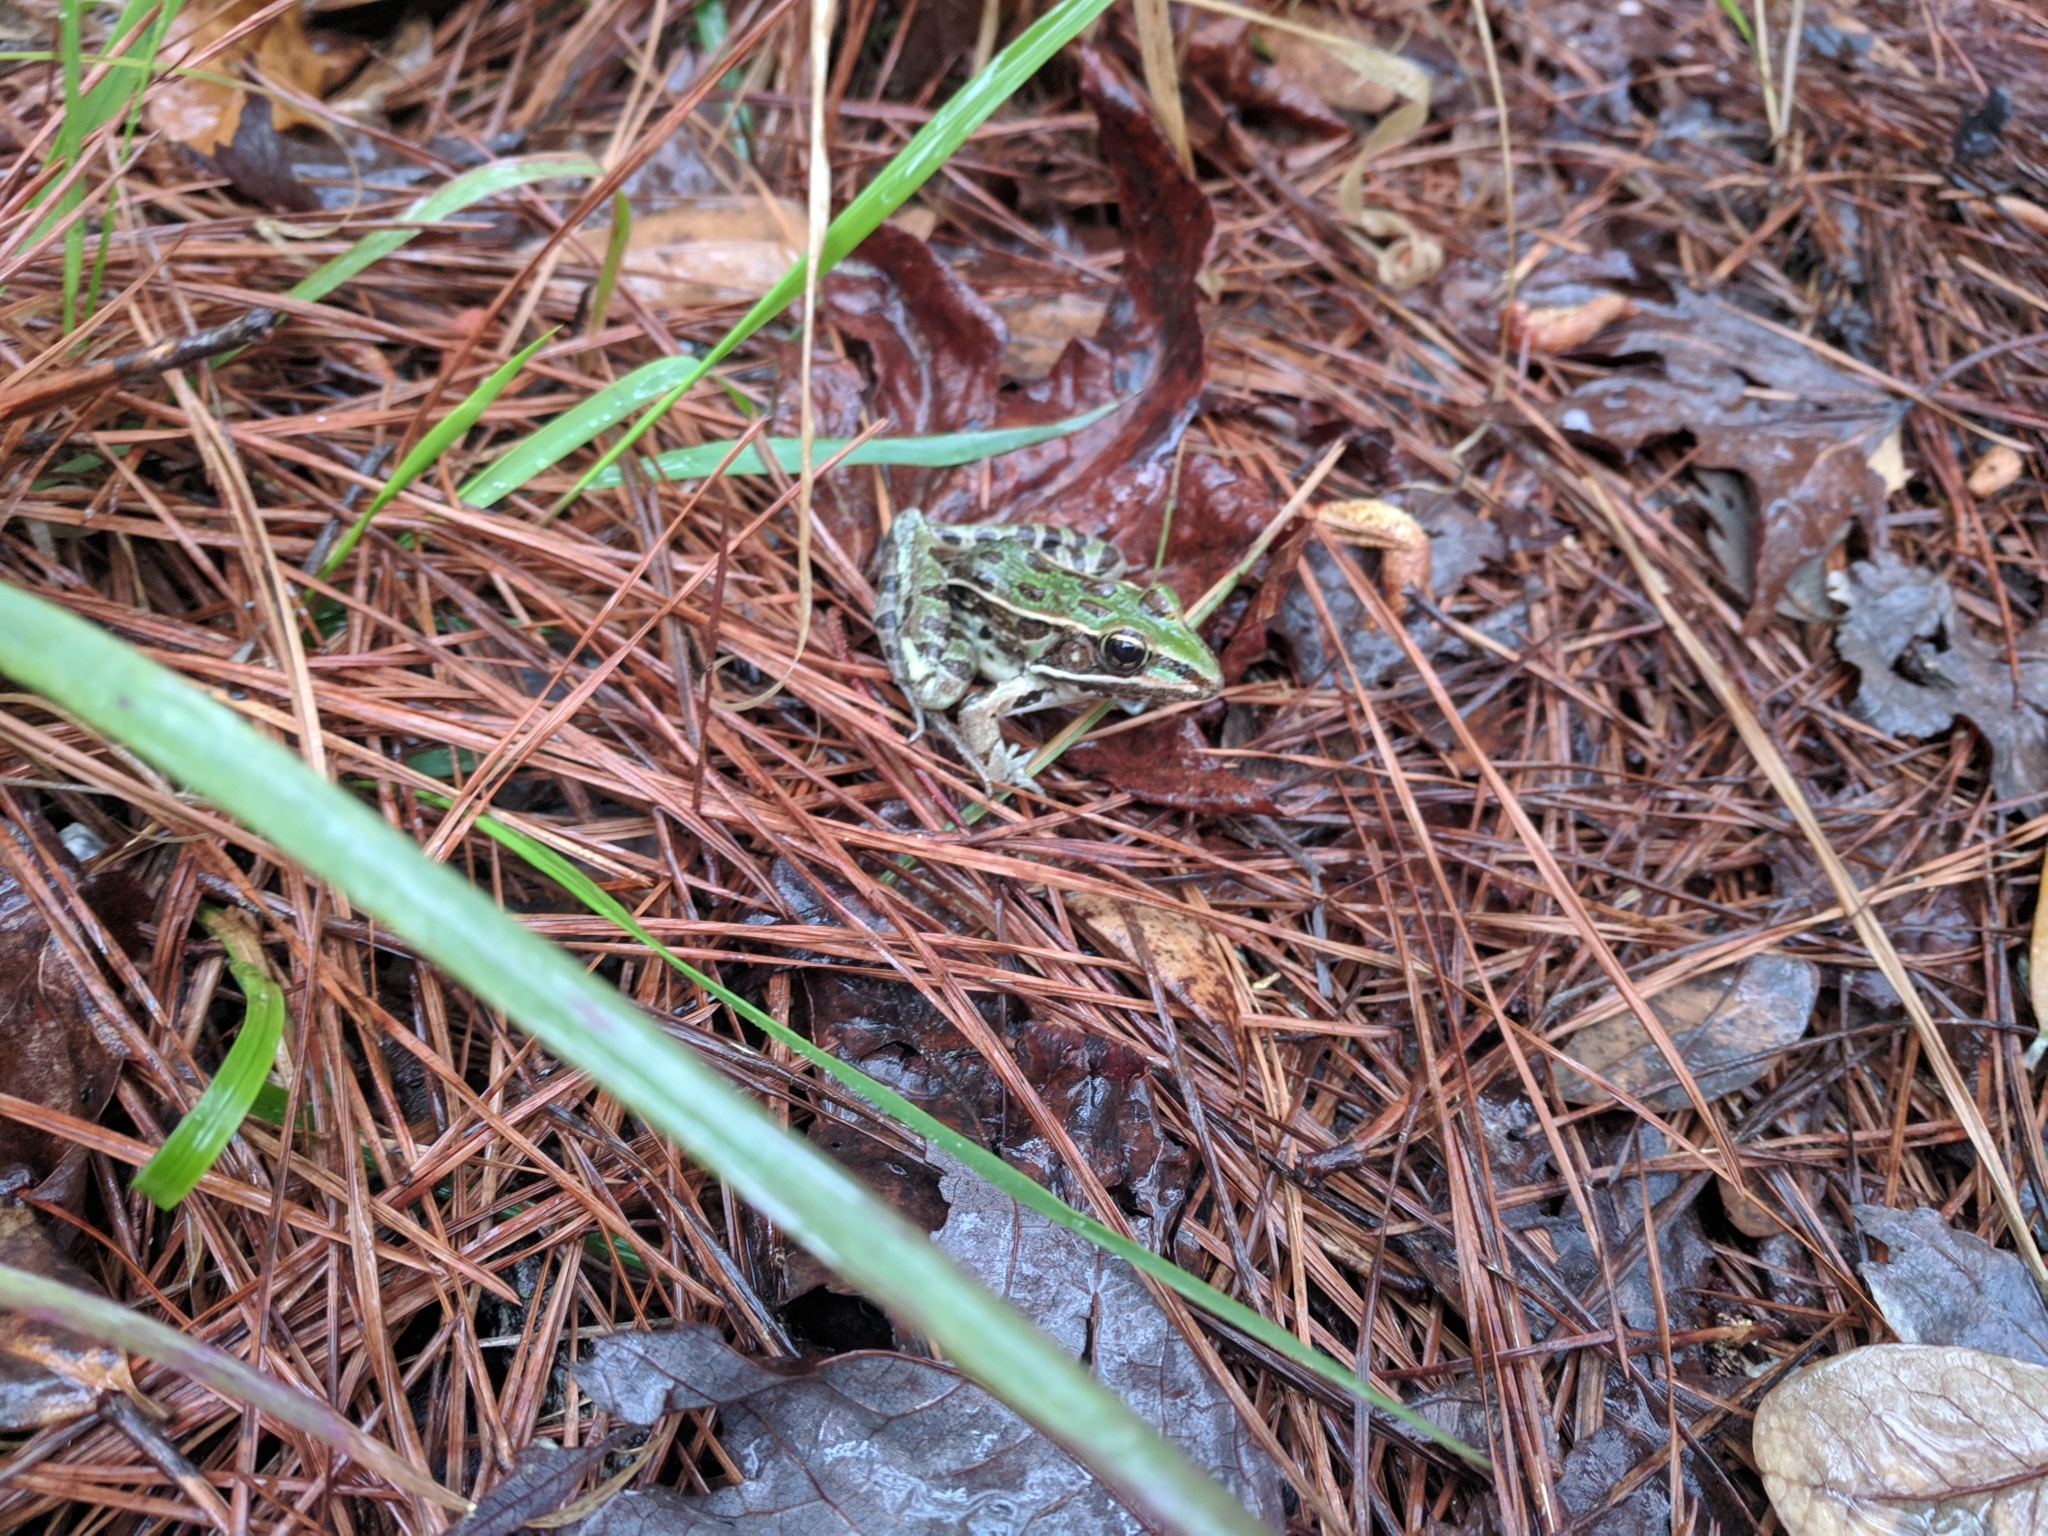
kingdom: Animalia
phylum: Chordata
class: Amphibia
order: Anura
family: Ranidae
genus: Lithobates
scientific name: Lithobates sphenocephalus
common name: Southern leopard frog
